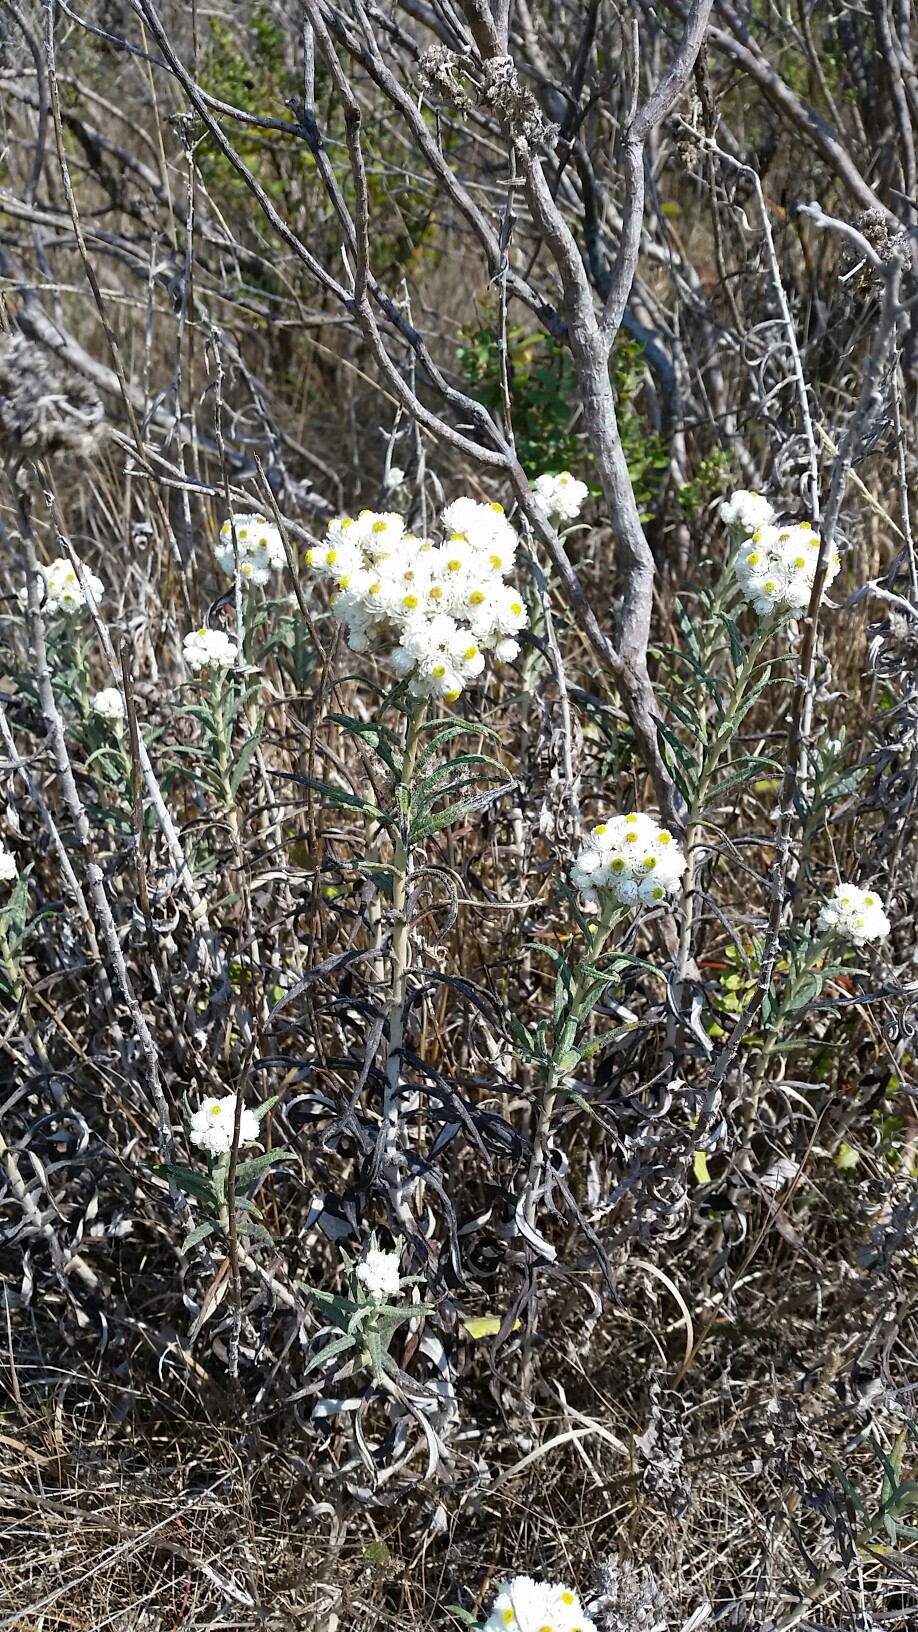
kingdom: Plantae
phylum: Tracheophyta
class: Magnoliopsida
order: Asterales
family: Asteraceae
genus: Anaphalis
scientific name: Anaphalis margaritacea
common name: Pearly everlasting
